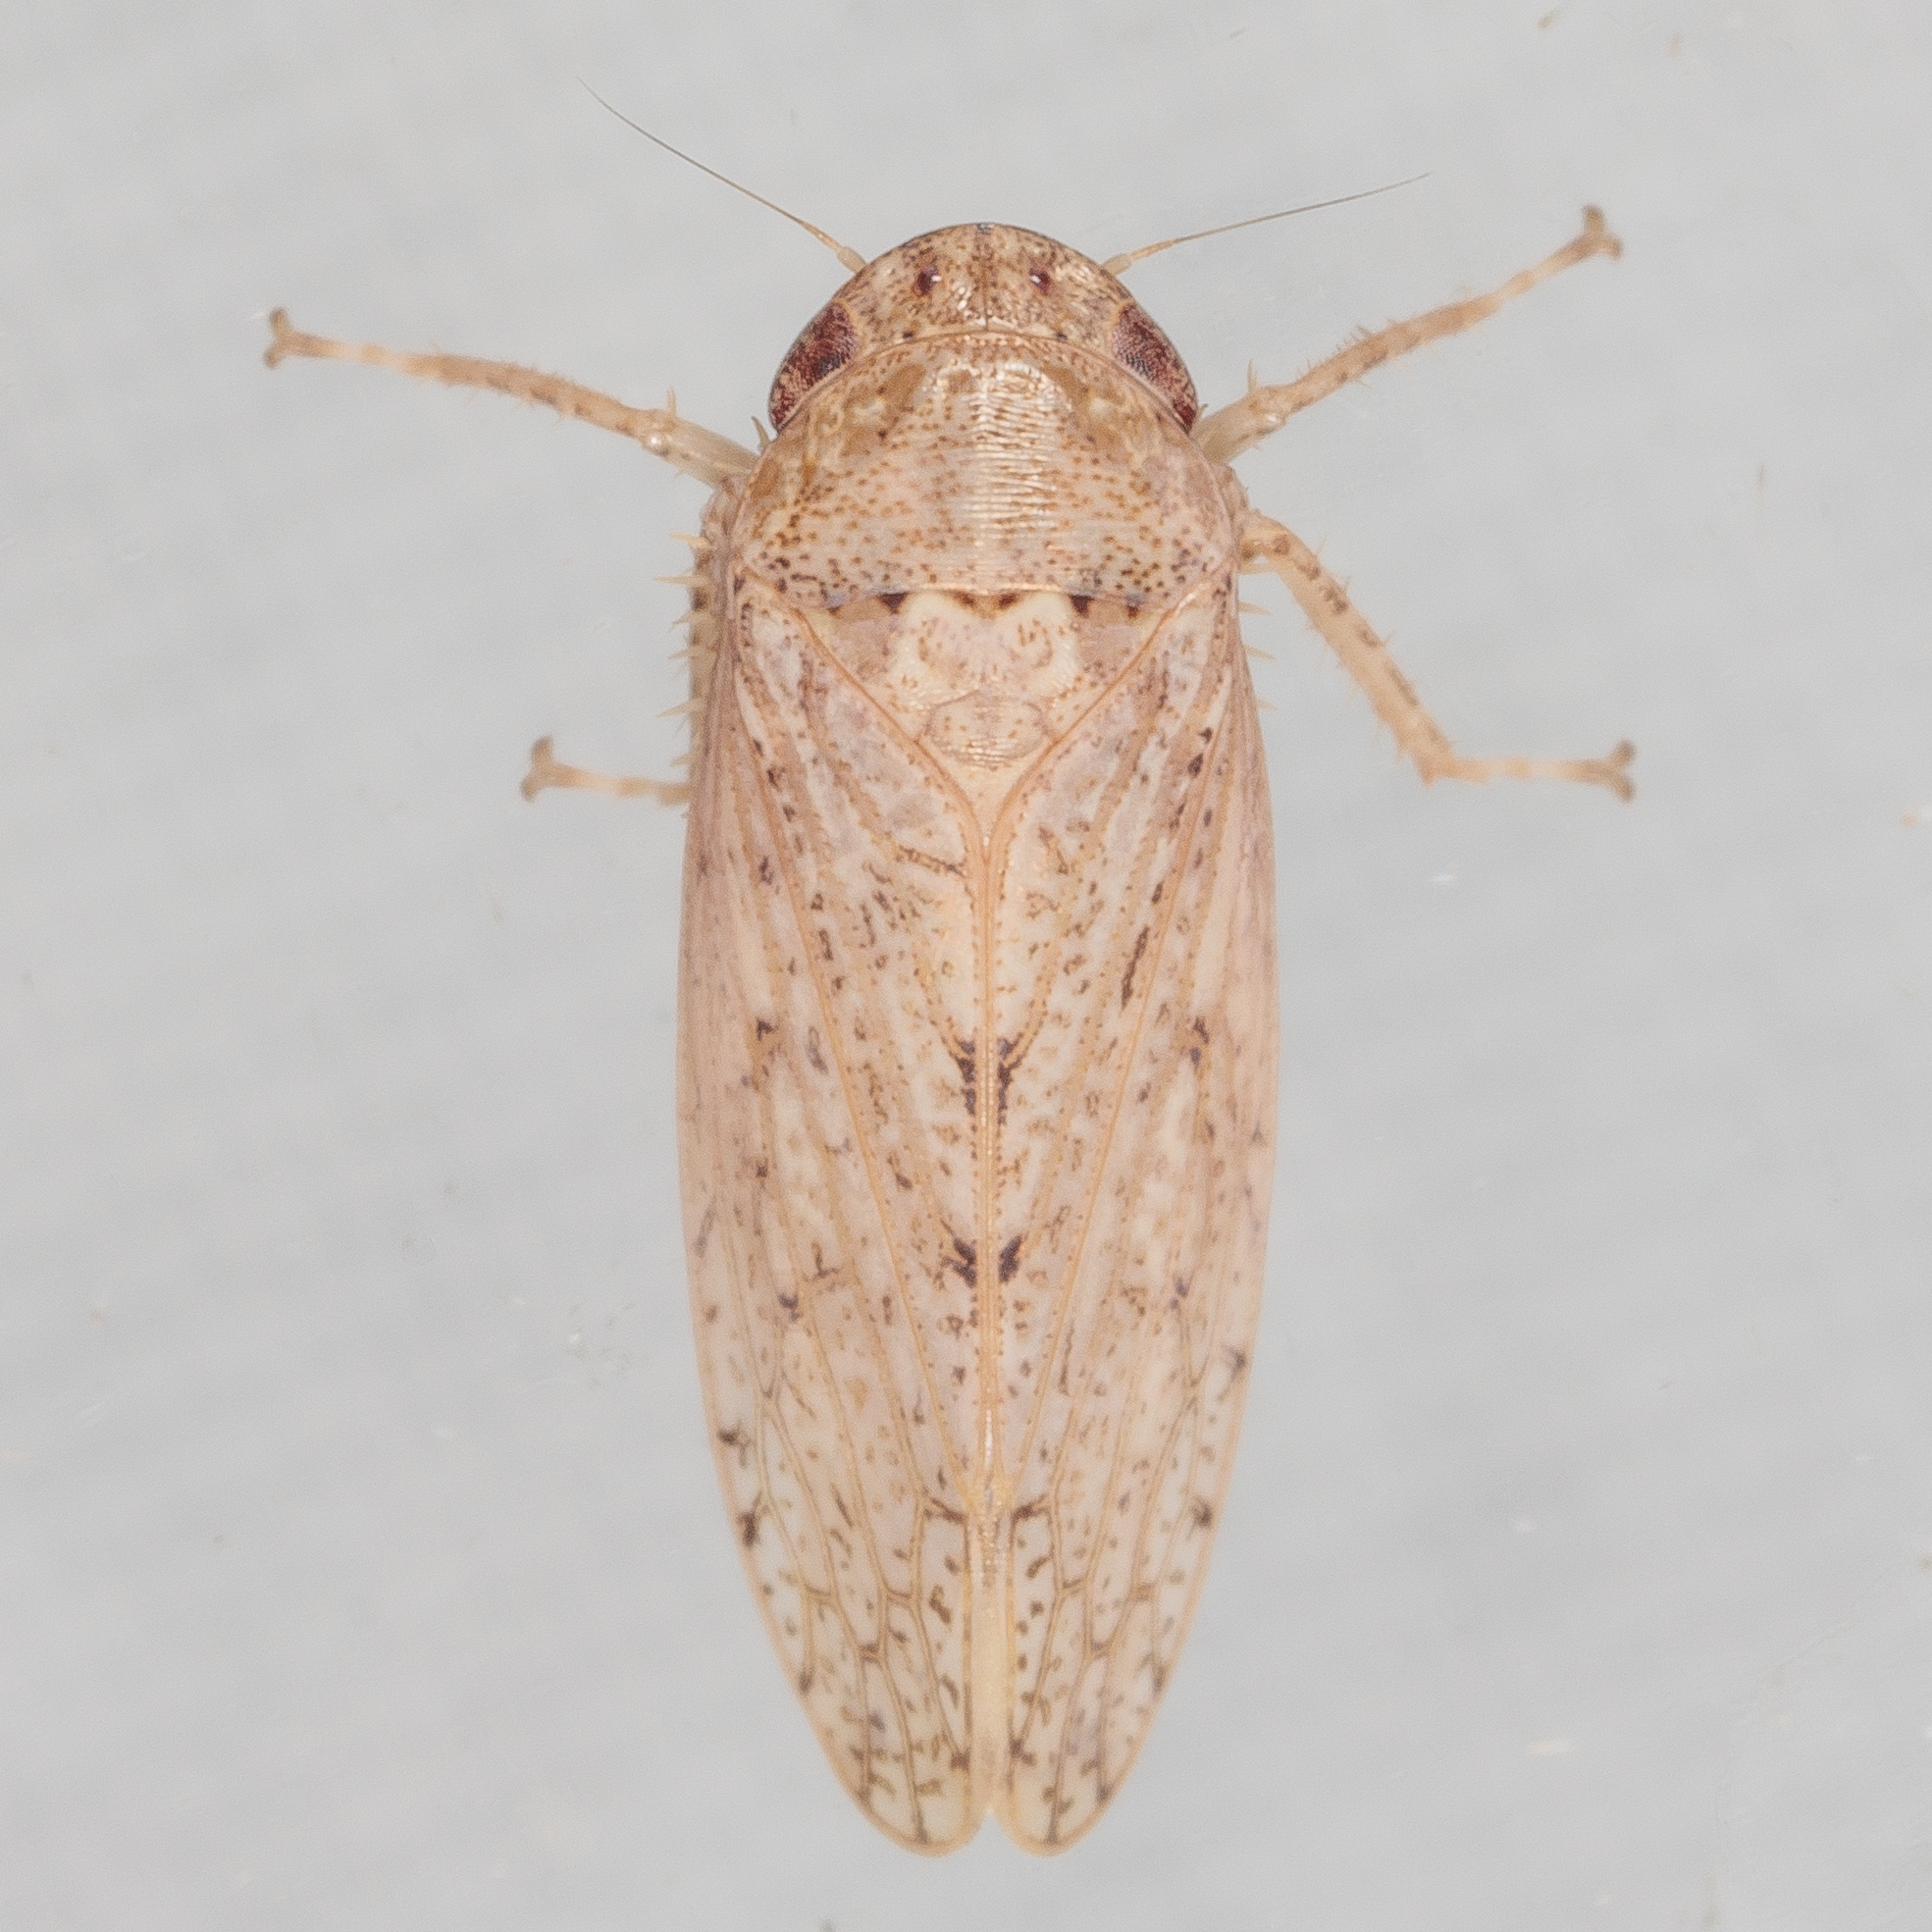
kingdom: Animalia
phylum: Arthropoda
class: Insecta
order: Hemiptera
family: Cicadellidae
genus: Curtara
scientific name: Curtara insularis
